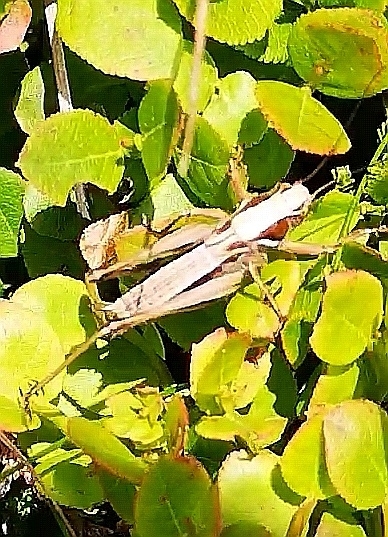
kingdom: Animalia
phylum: Arthropoda
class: Insecta
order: Orthoptera
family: Tettigoniidae
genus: Metrioptera
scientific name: Metrioptera brachyptera
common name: Bog bush-cricket
